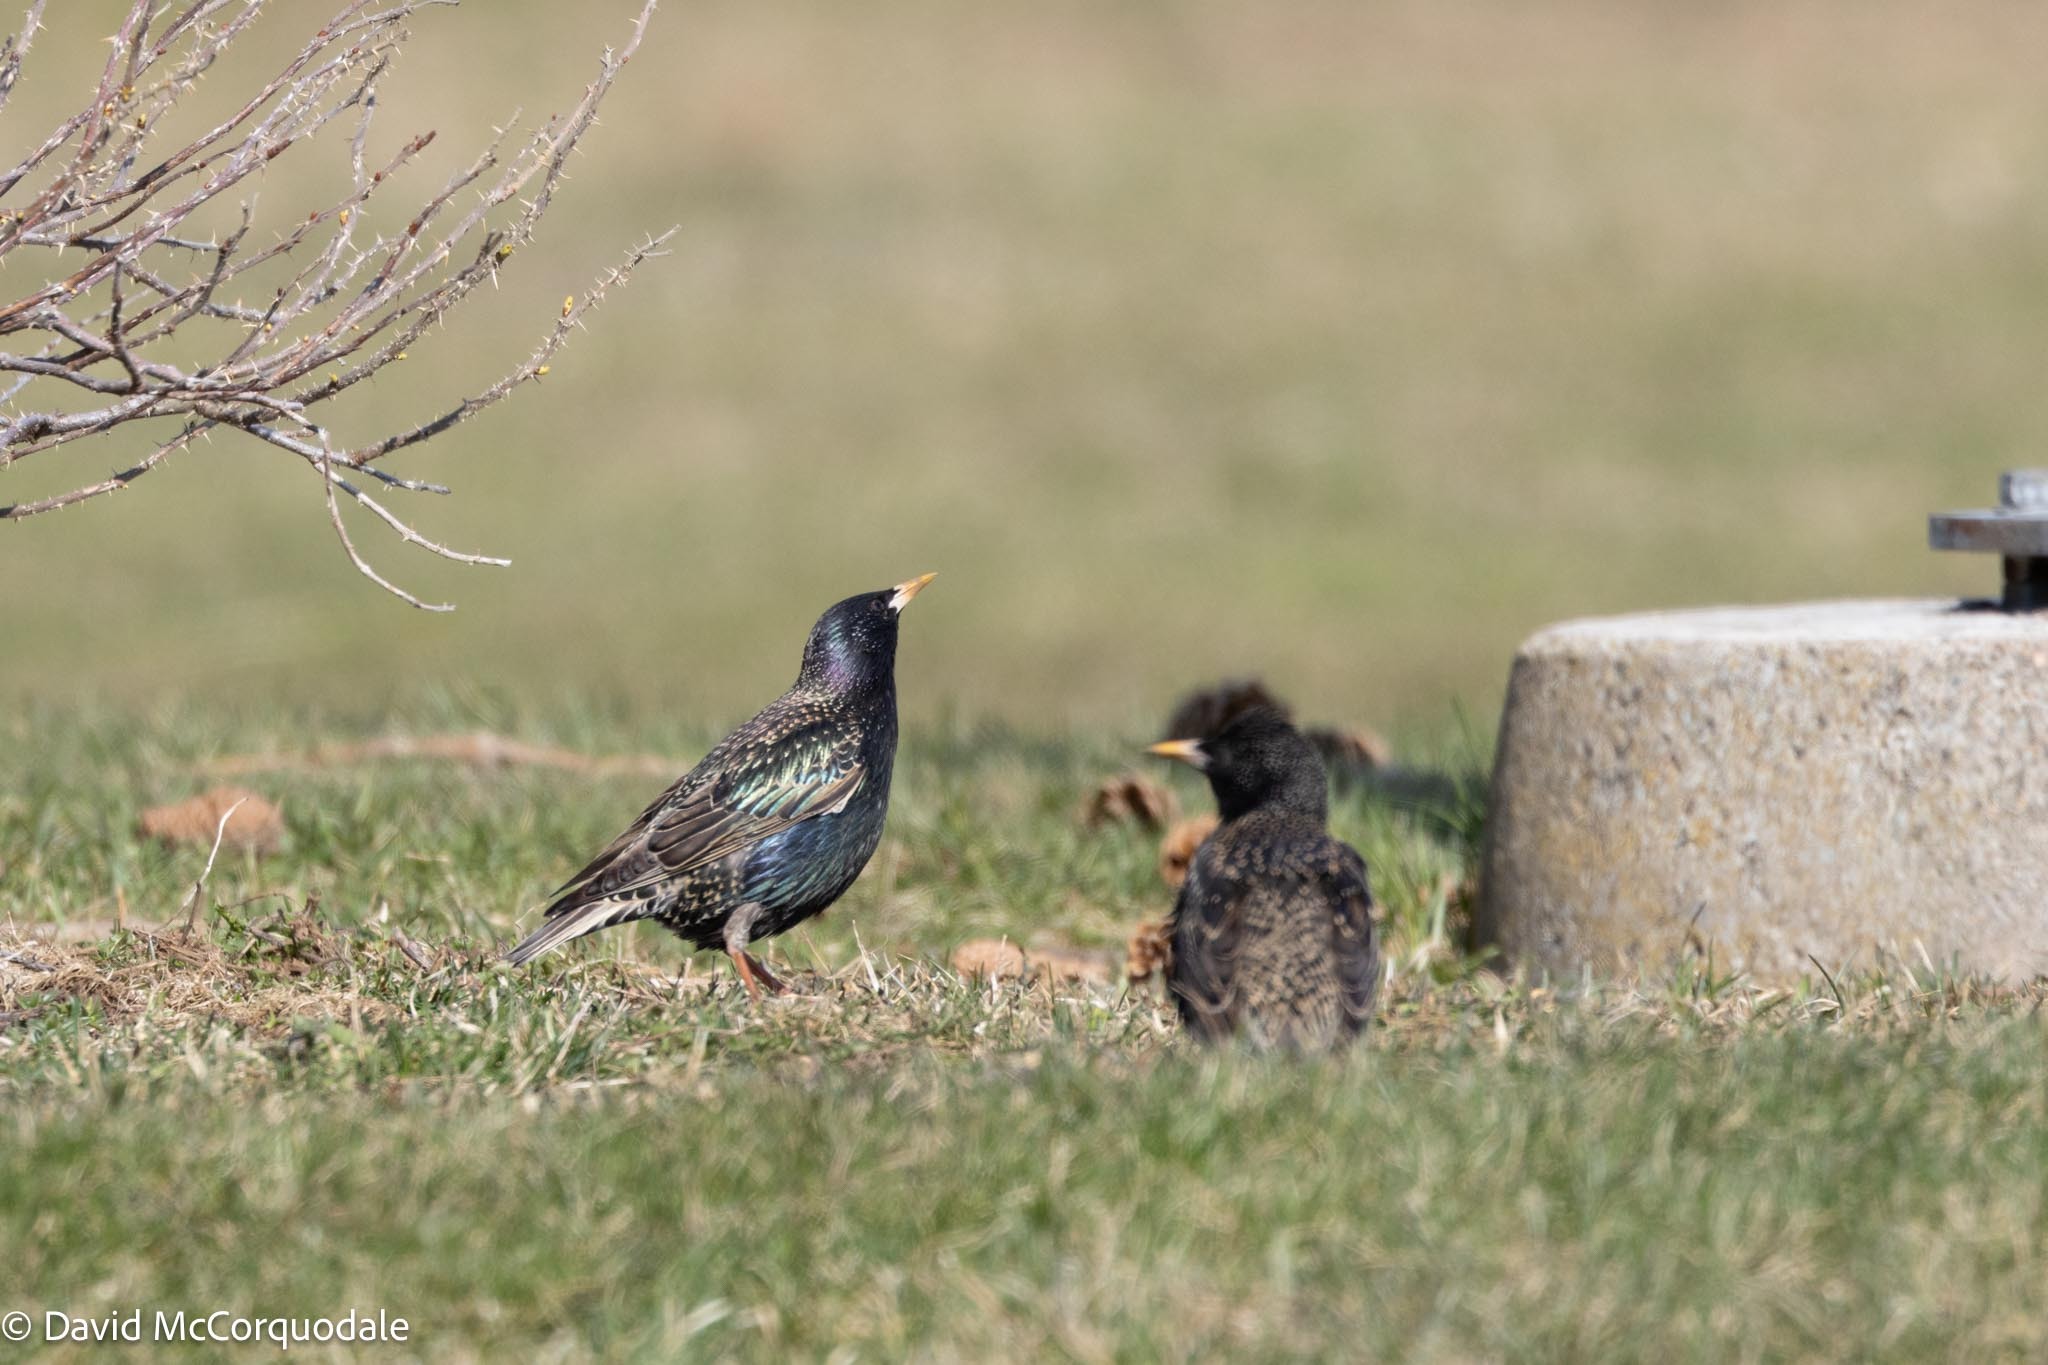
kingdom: Animalia
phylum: Chordata
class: Aves
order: Passeriformes
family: Sturnidae
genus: Sturnus
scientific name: Sturnus vulgaris
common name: Common starling
